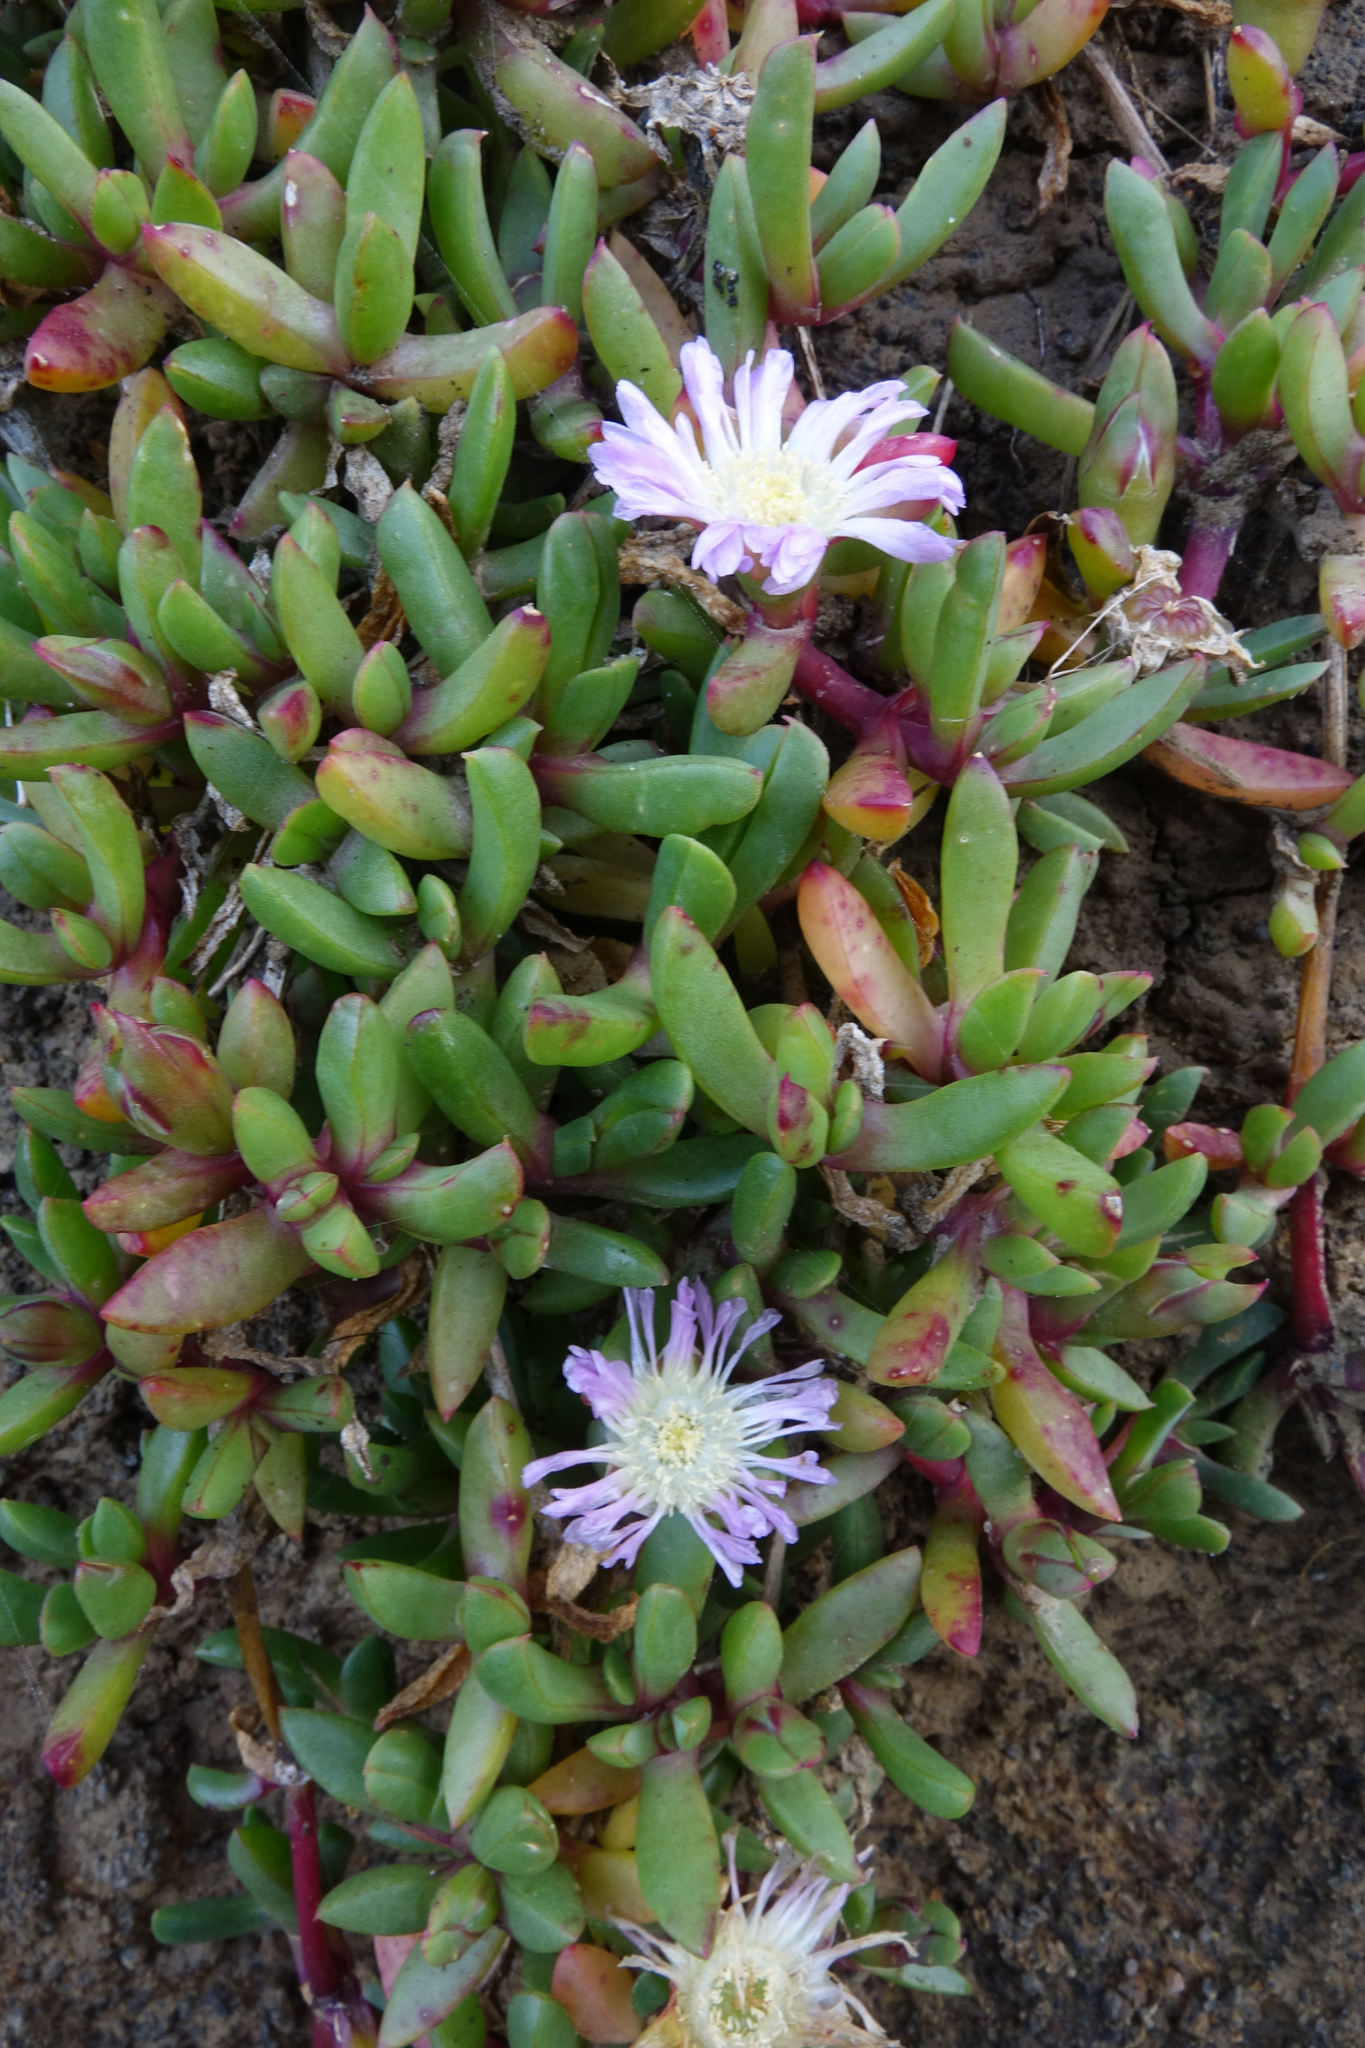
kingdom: Plantae
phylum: Tracheophyta
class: Magnoliopsida
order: Caryophyllales
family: Aizoaceae
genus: Disphyma
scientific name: Disphyma australe
